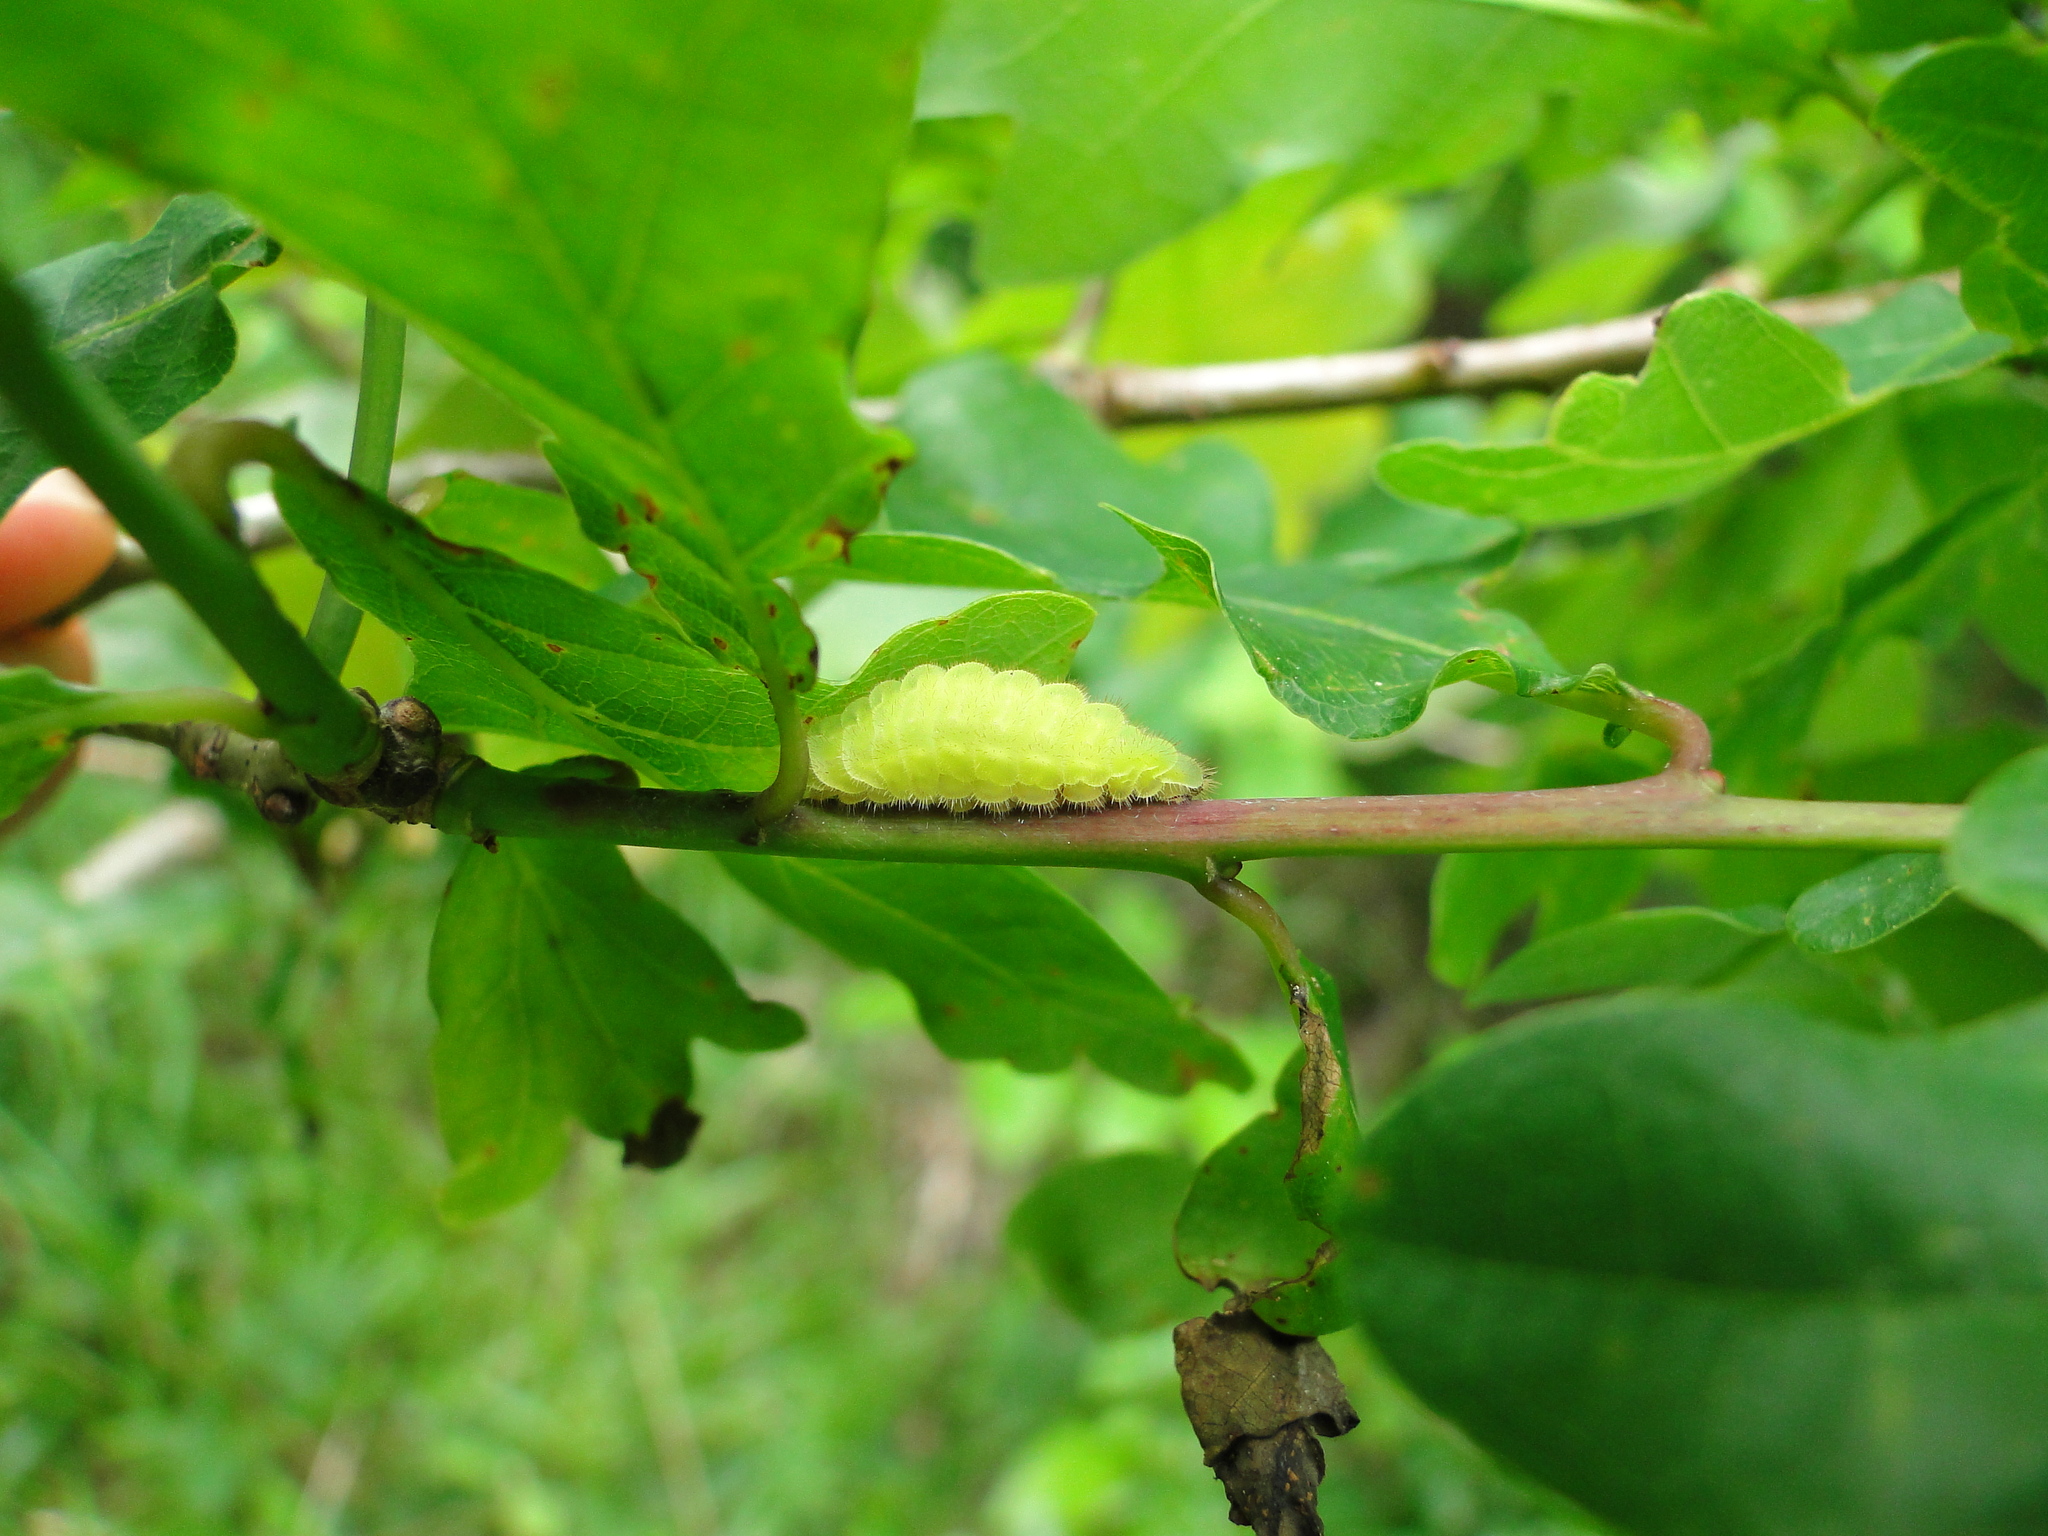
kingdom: Animalia
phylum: Arthropoda
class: Insecta
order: Lepidoptera
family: Lycaenidae
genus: Nordmannia
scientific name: Nordmannia ilicis
